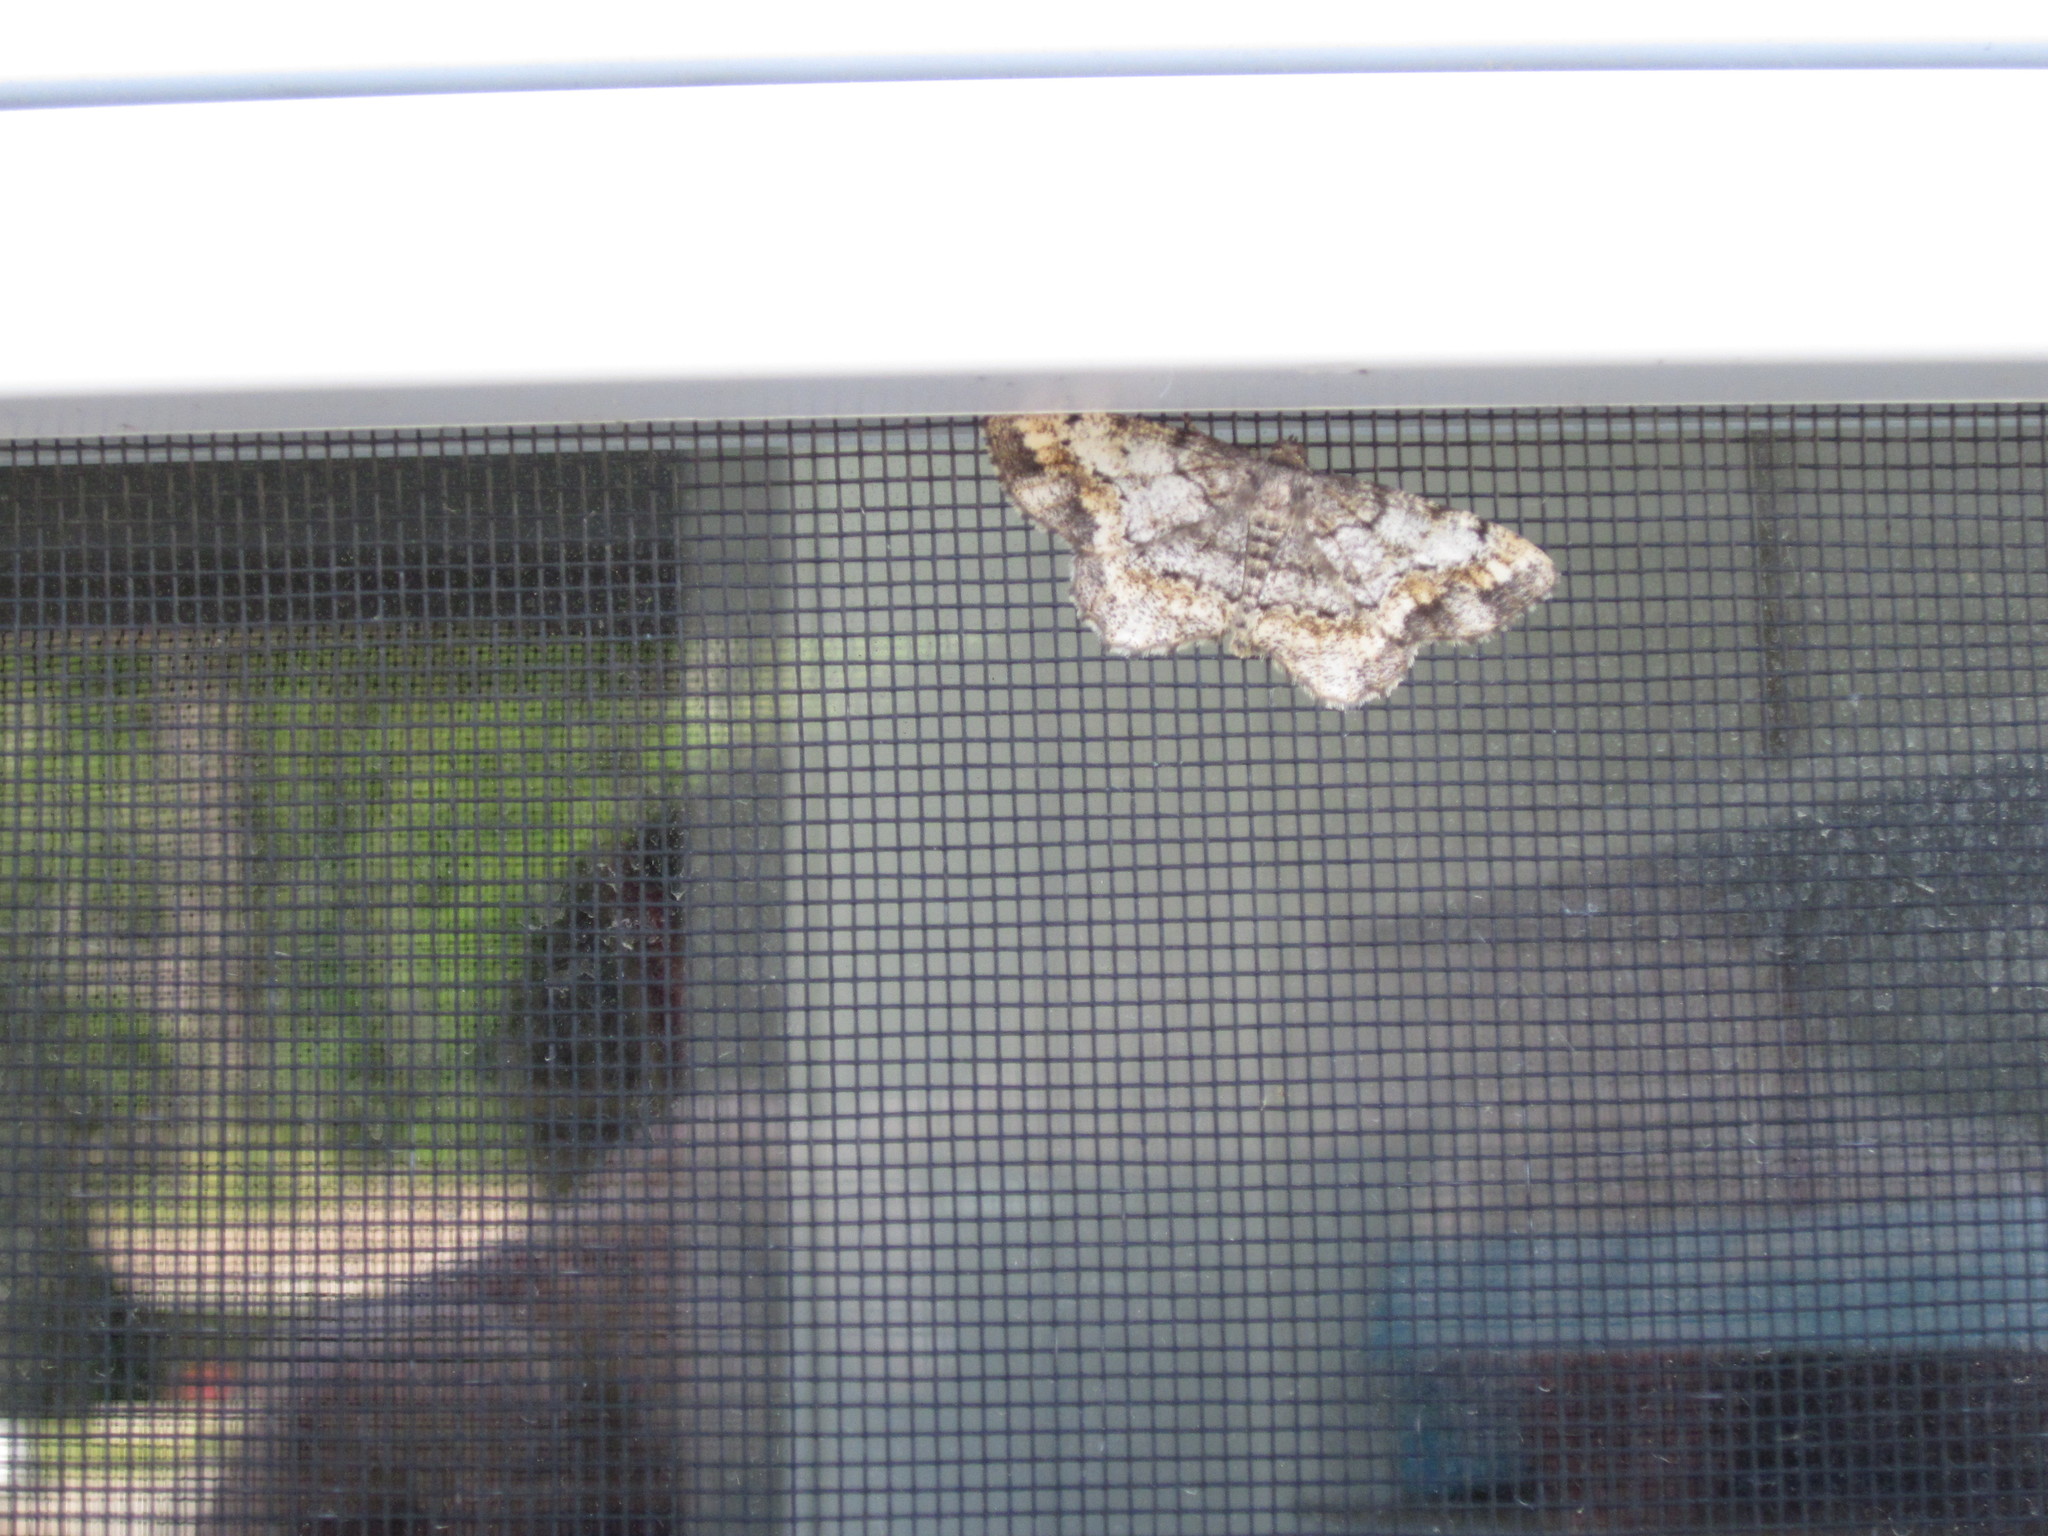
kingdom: Animalia
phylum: Arthropoda
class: Insecta
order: Lepidoptera
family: Geometridae
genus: Hypagyrtis
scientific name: Hypagyrtis unipunctata
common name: One-spotted variant
